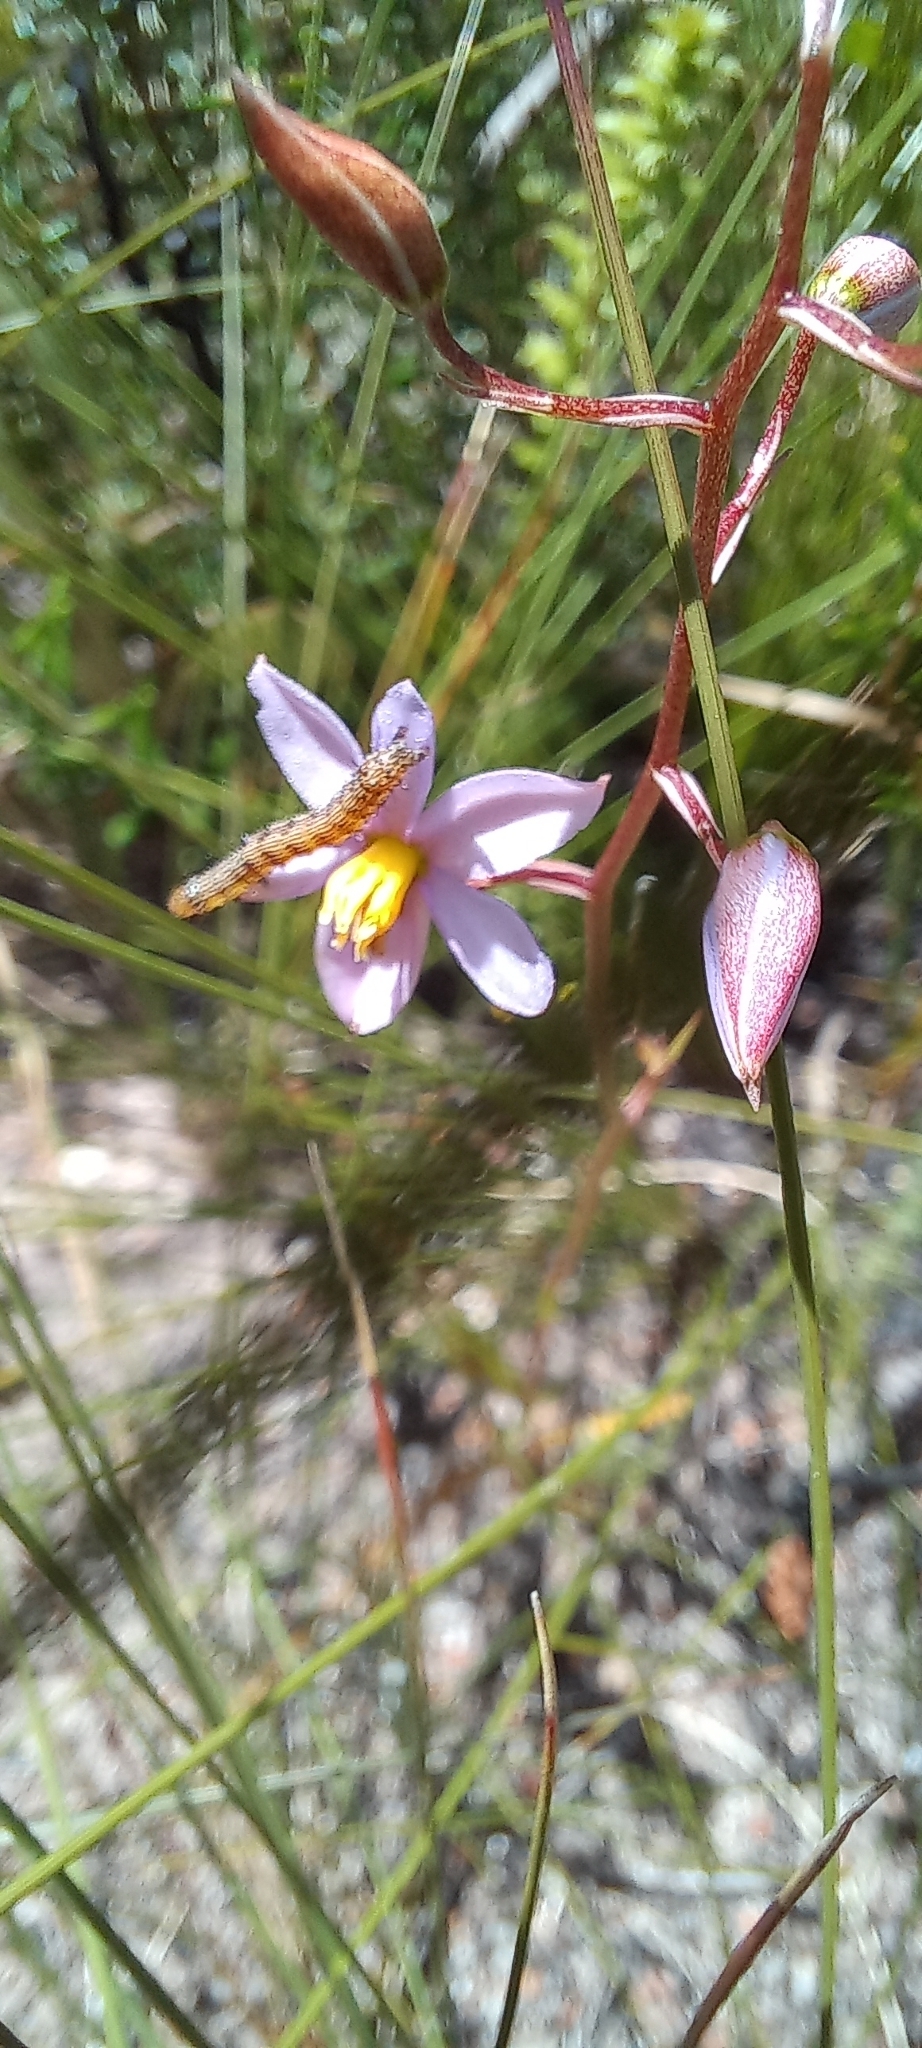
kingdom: Animalia
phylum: Arthropoda
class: Insecta
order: Lepidoptera
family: Noctuidae
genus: Helicoverpa
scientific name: Helicoverpa armigera
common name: Cotton bollworm
